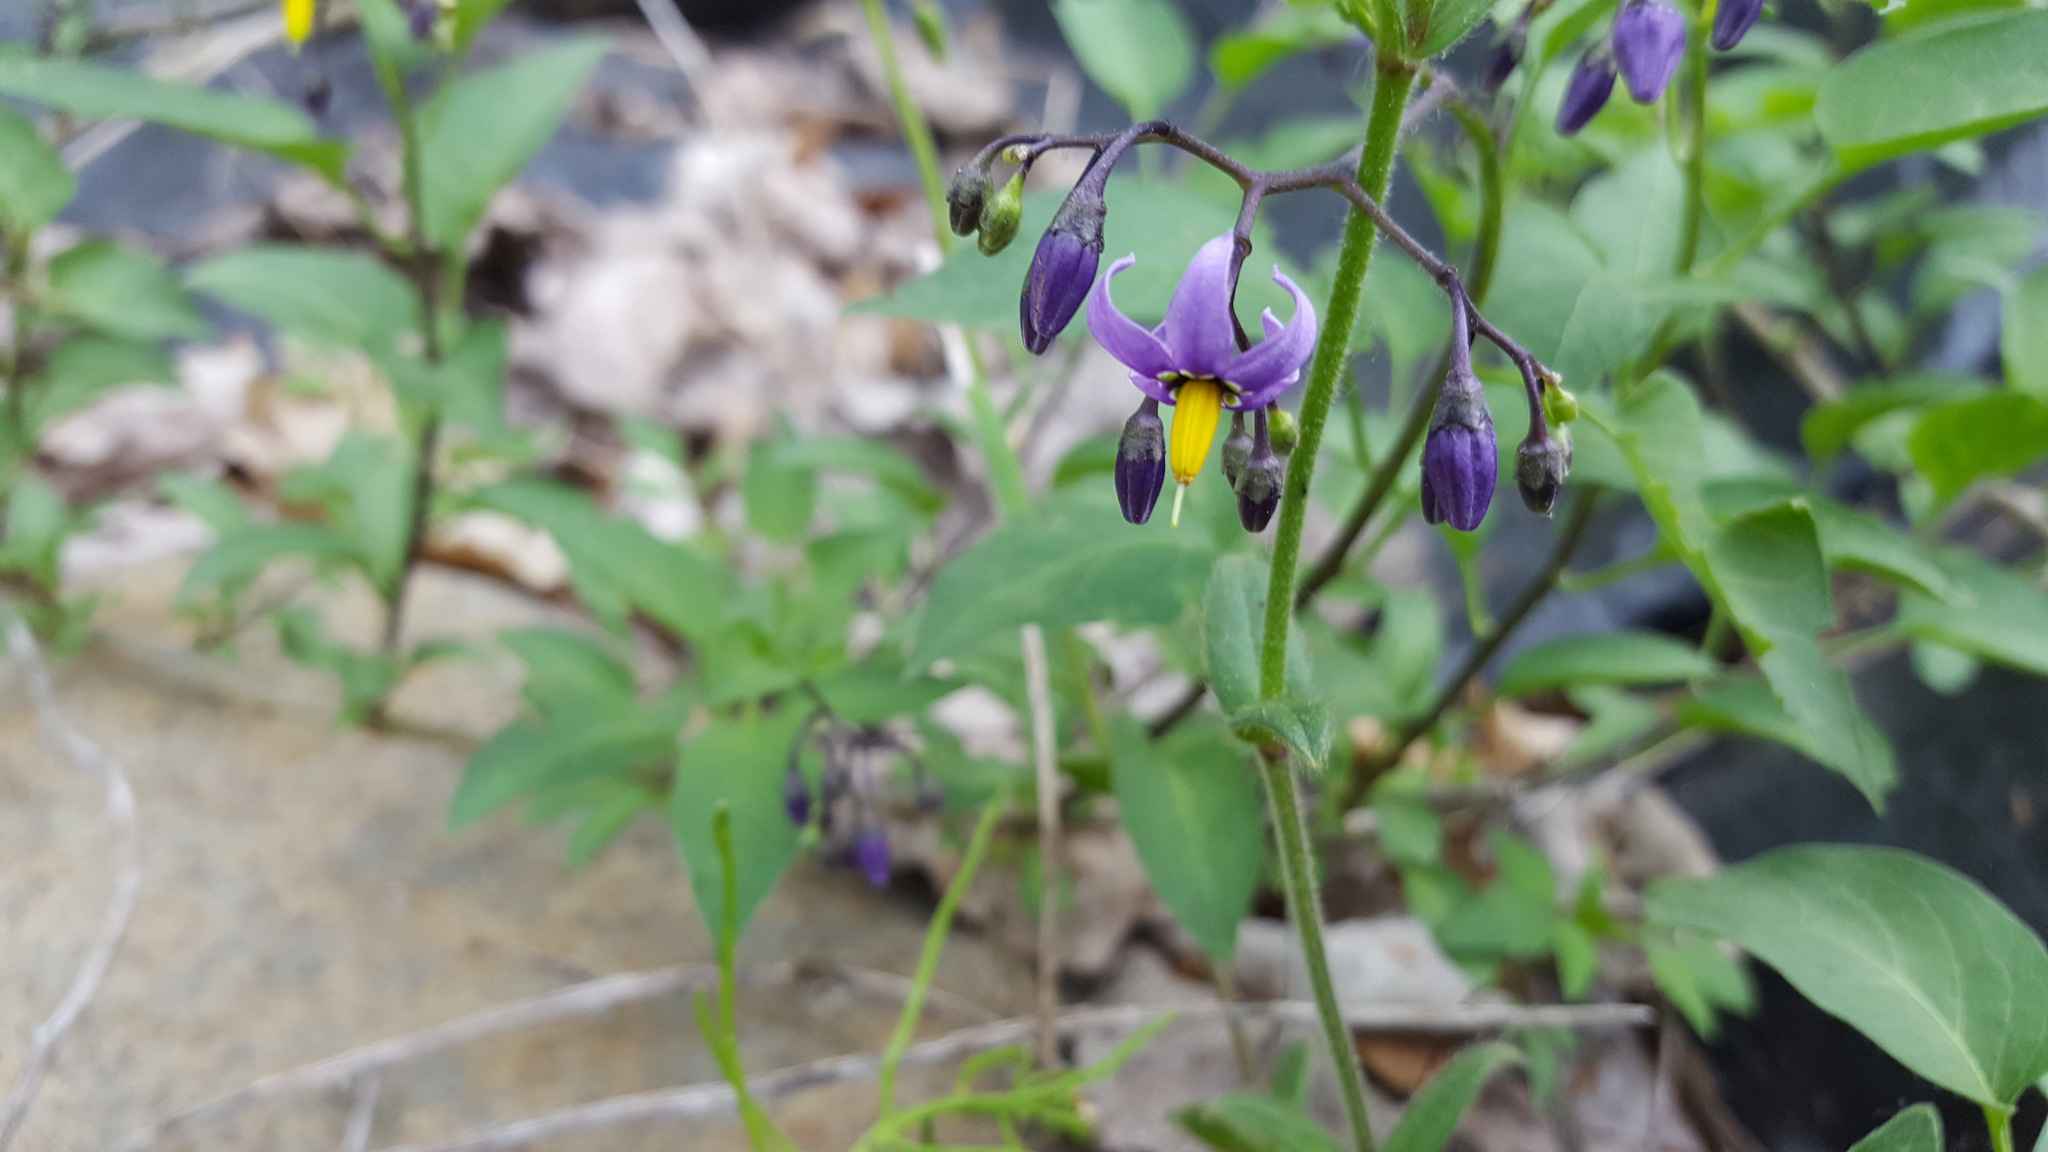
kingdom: Plantae
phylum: Tracheophyta
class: Magnoliopsida
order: Solanales
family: Solanaceae
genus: Solanum
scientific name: Solanum dulcamara
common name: Climbing nightshade
